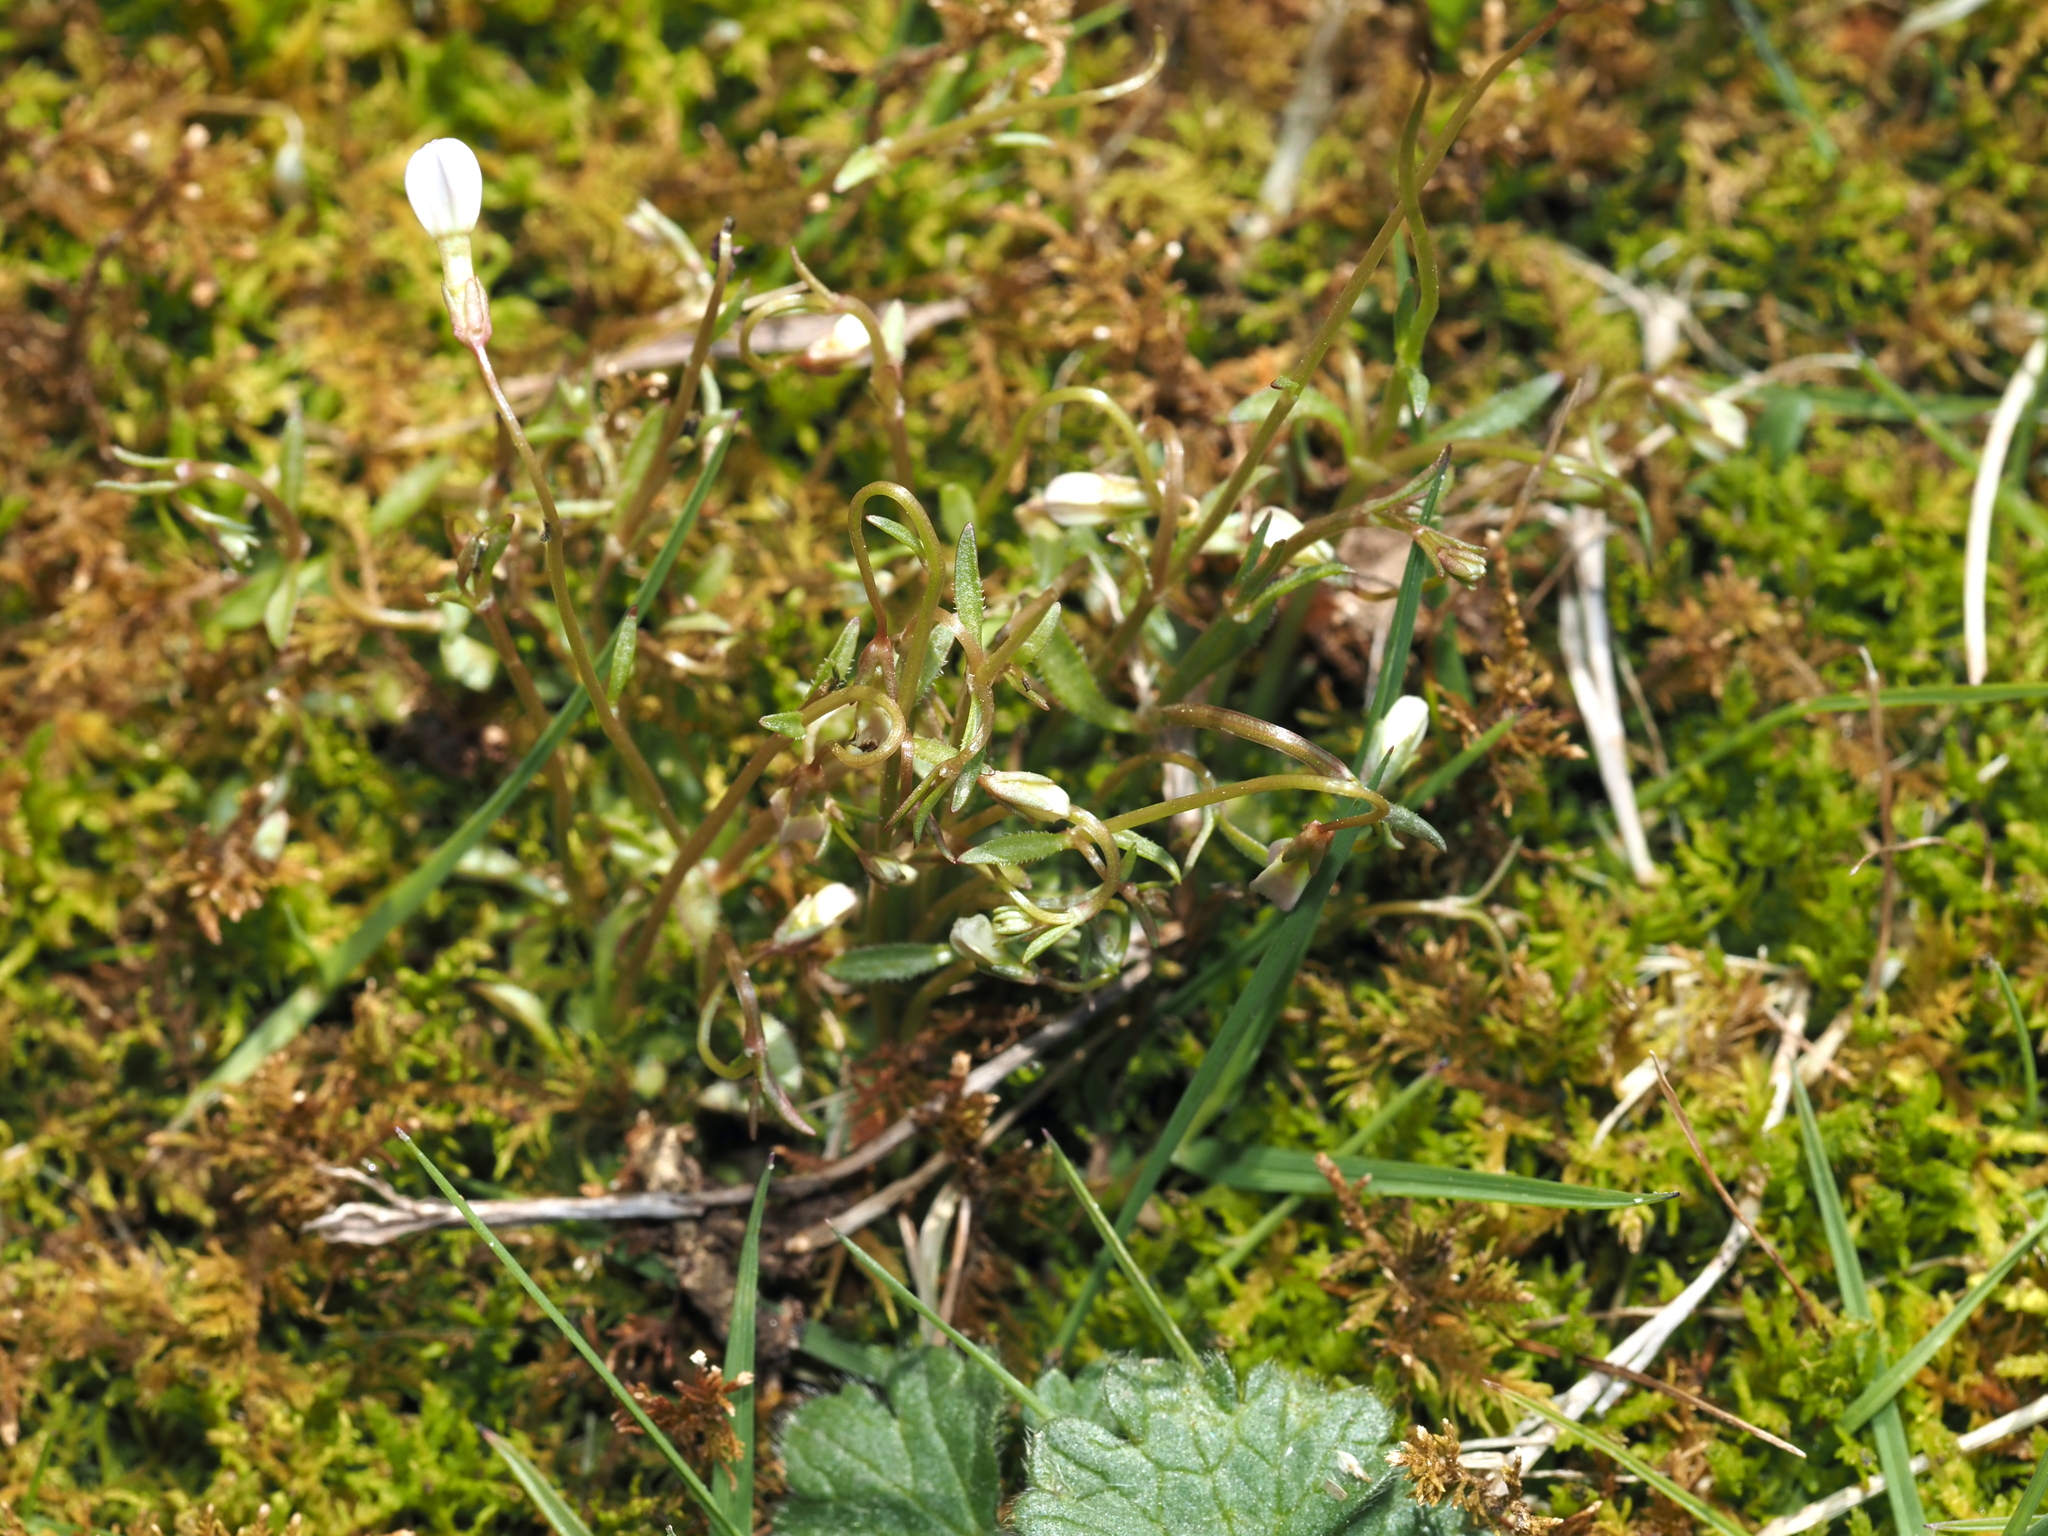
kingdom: Plantae
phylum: Tracheophyta
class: Magnoliopsida
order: Gentianales
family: Rubiaceae
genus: Houstonia
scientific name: Houstonia caerulea
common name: Bluets
